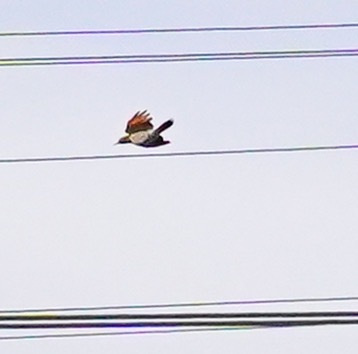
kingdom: Animalia
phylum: Chordata
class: Aves
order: Piciformes
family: Picidae
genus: Colaptes
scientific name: Colaptes auratus
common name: Northern flicker
